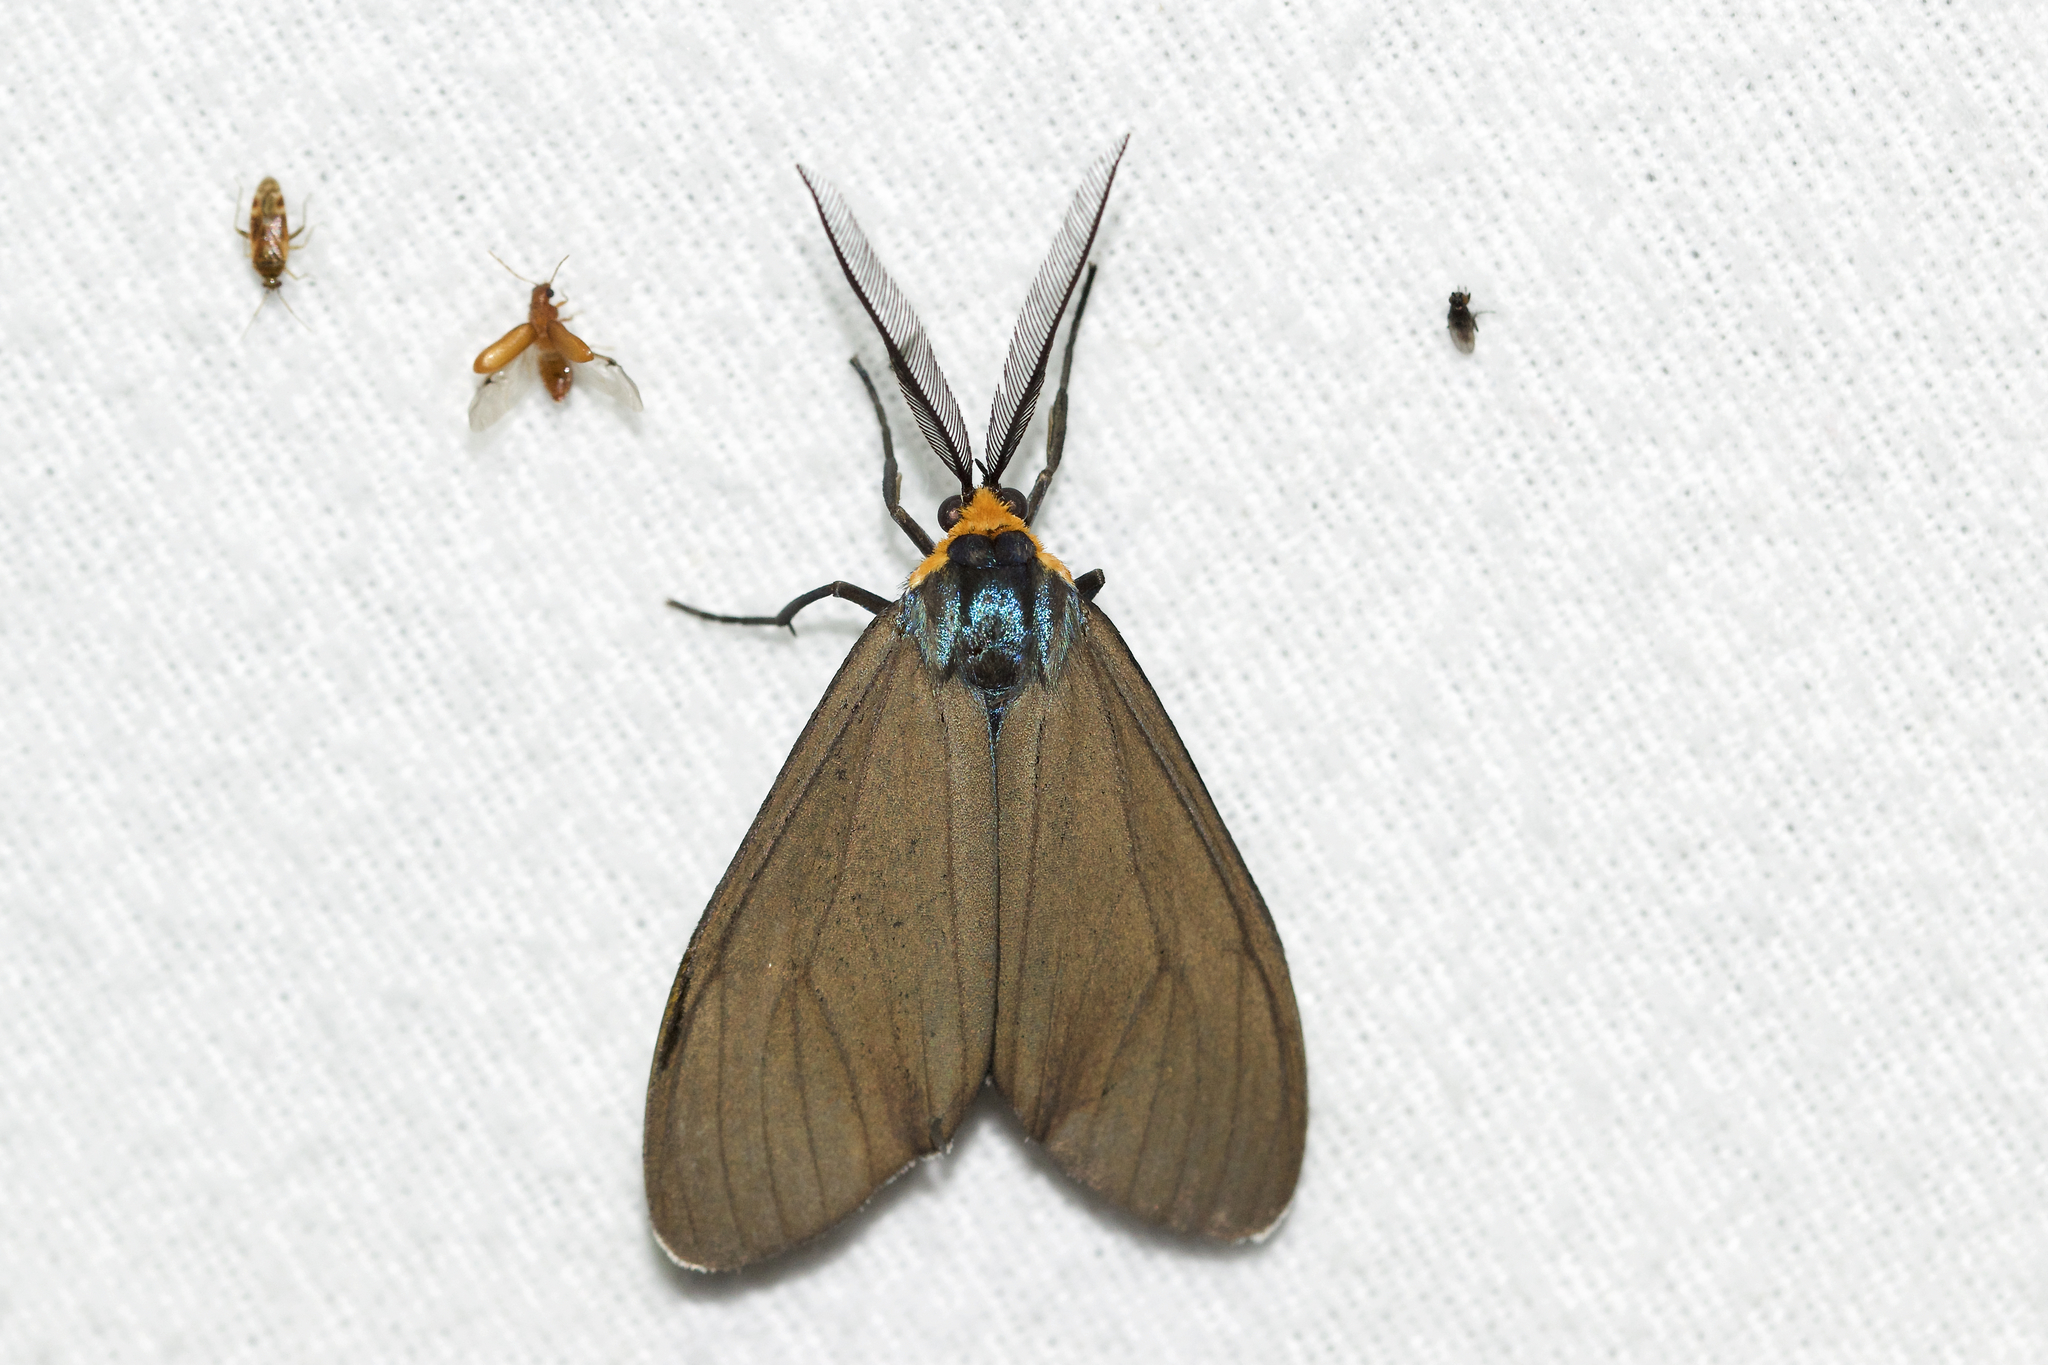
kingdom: Animalia
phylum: Arthropoda
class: Insecta
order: Lepidoptera
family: Erebidae
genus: Ctenucha
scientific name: Ctenucha virginica
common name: Virginia ctenucha moth
